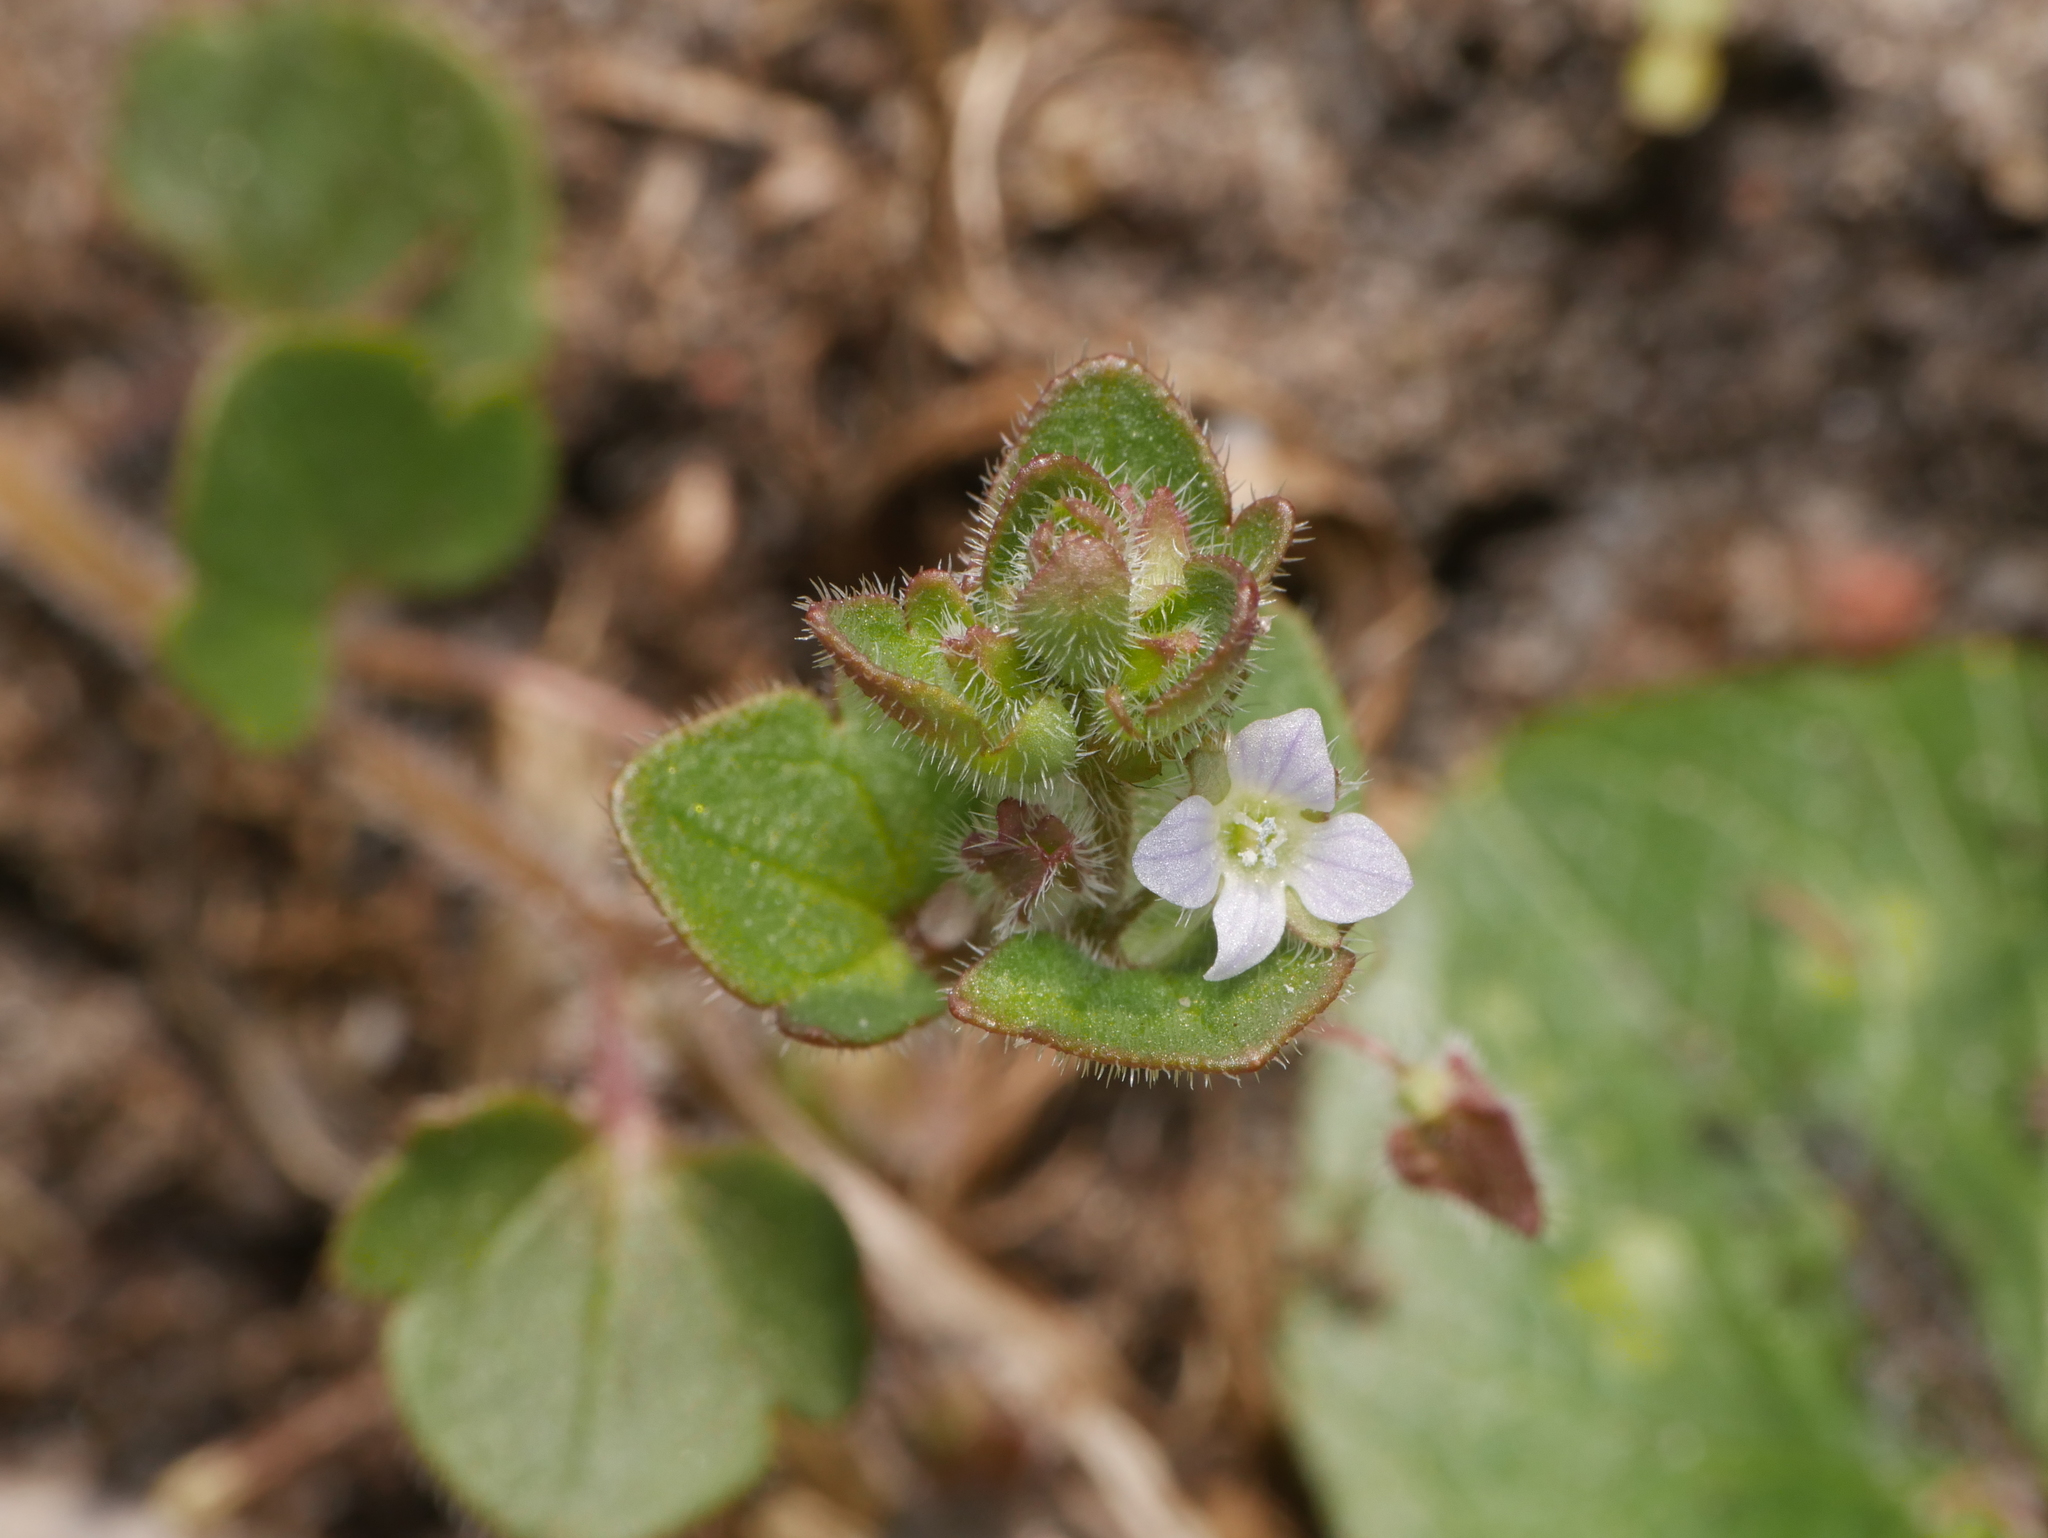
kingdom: Plantae
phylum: Tracheophyta
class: Magnoliopsida
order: Lamiales
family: Plantaginaceae
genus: Veronica
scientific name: Veronica sublobata
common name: False ivy-leaved speedwell
